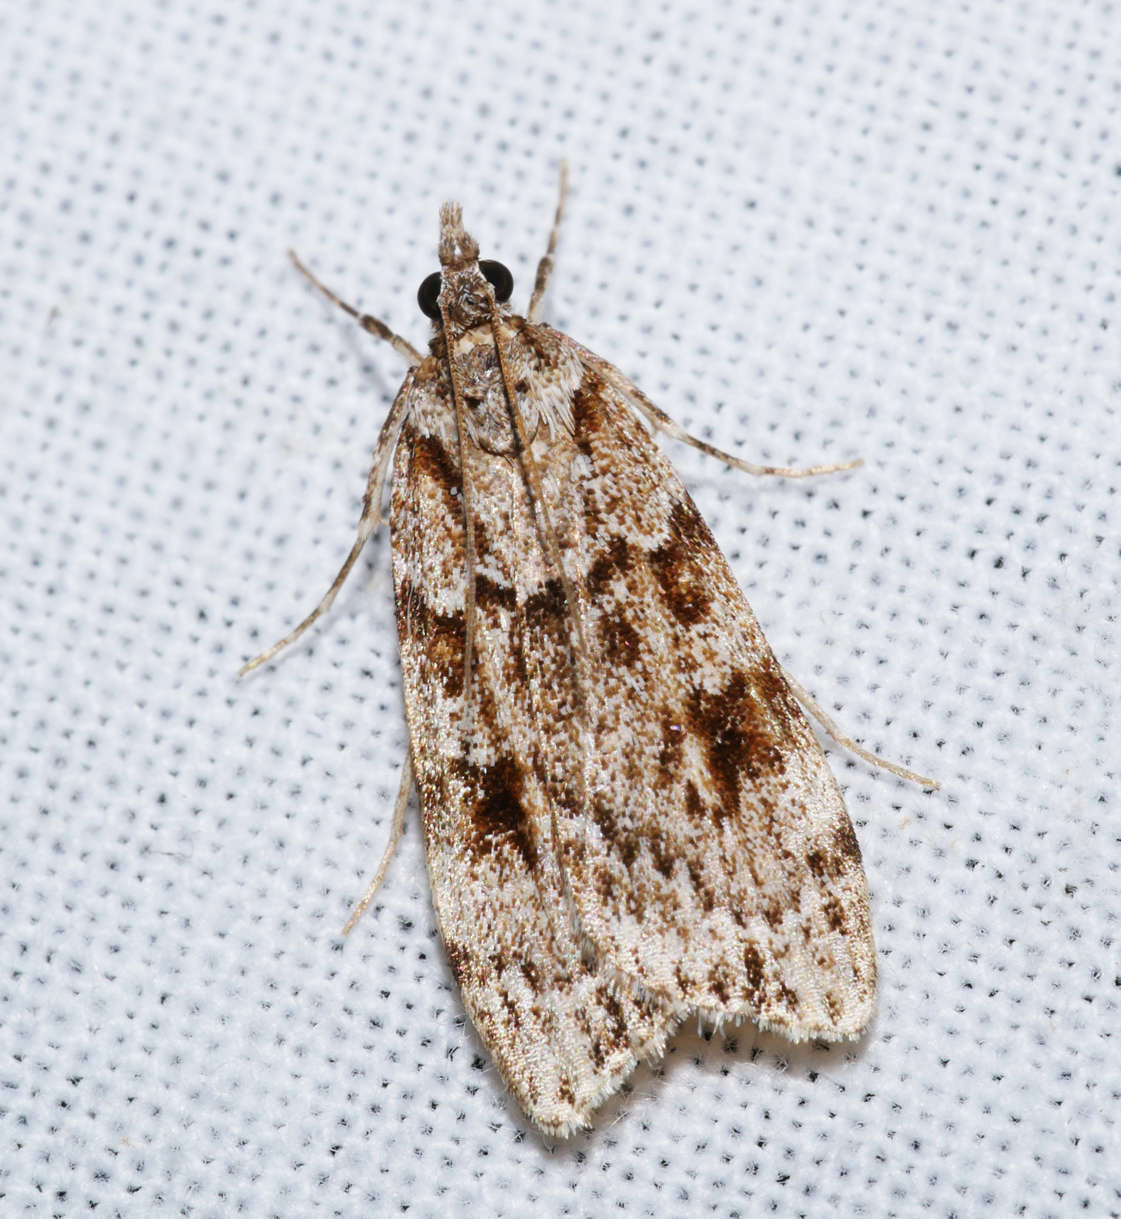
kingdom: Animalia
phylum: Arthropoda
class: Insecta
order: Lepidoptera
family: Crambidae
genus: Scoparia
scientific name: Scoparia emmetropis
